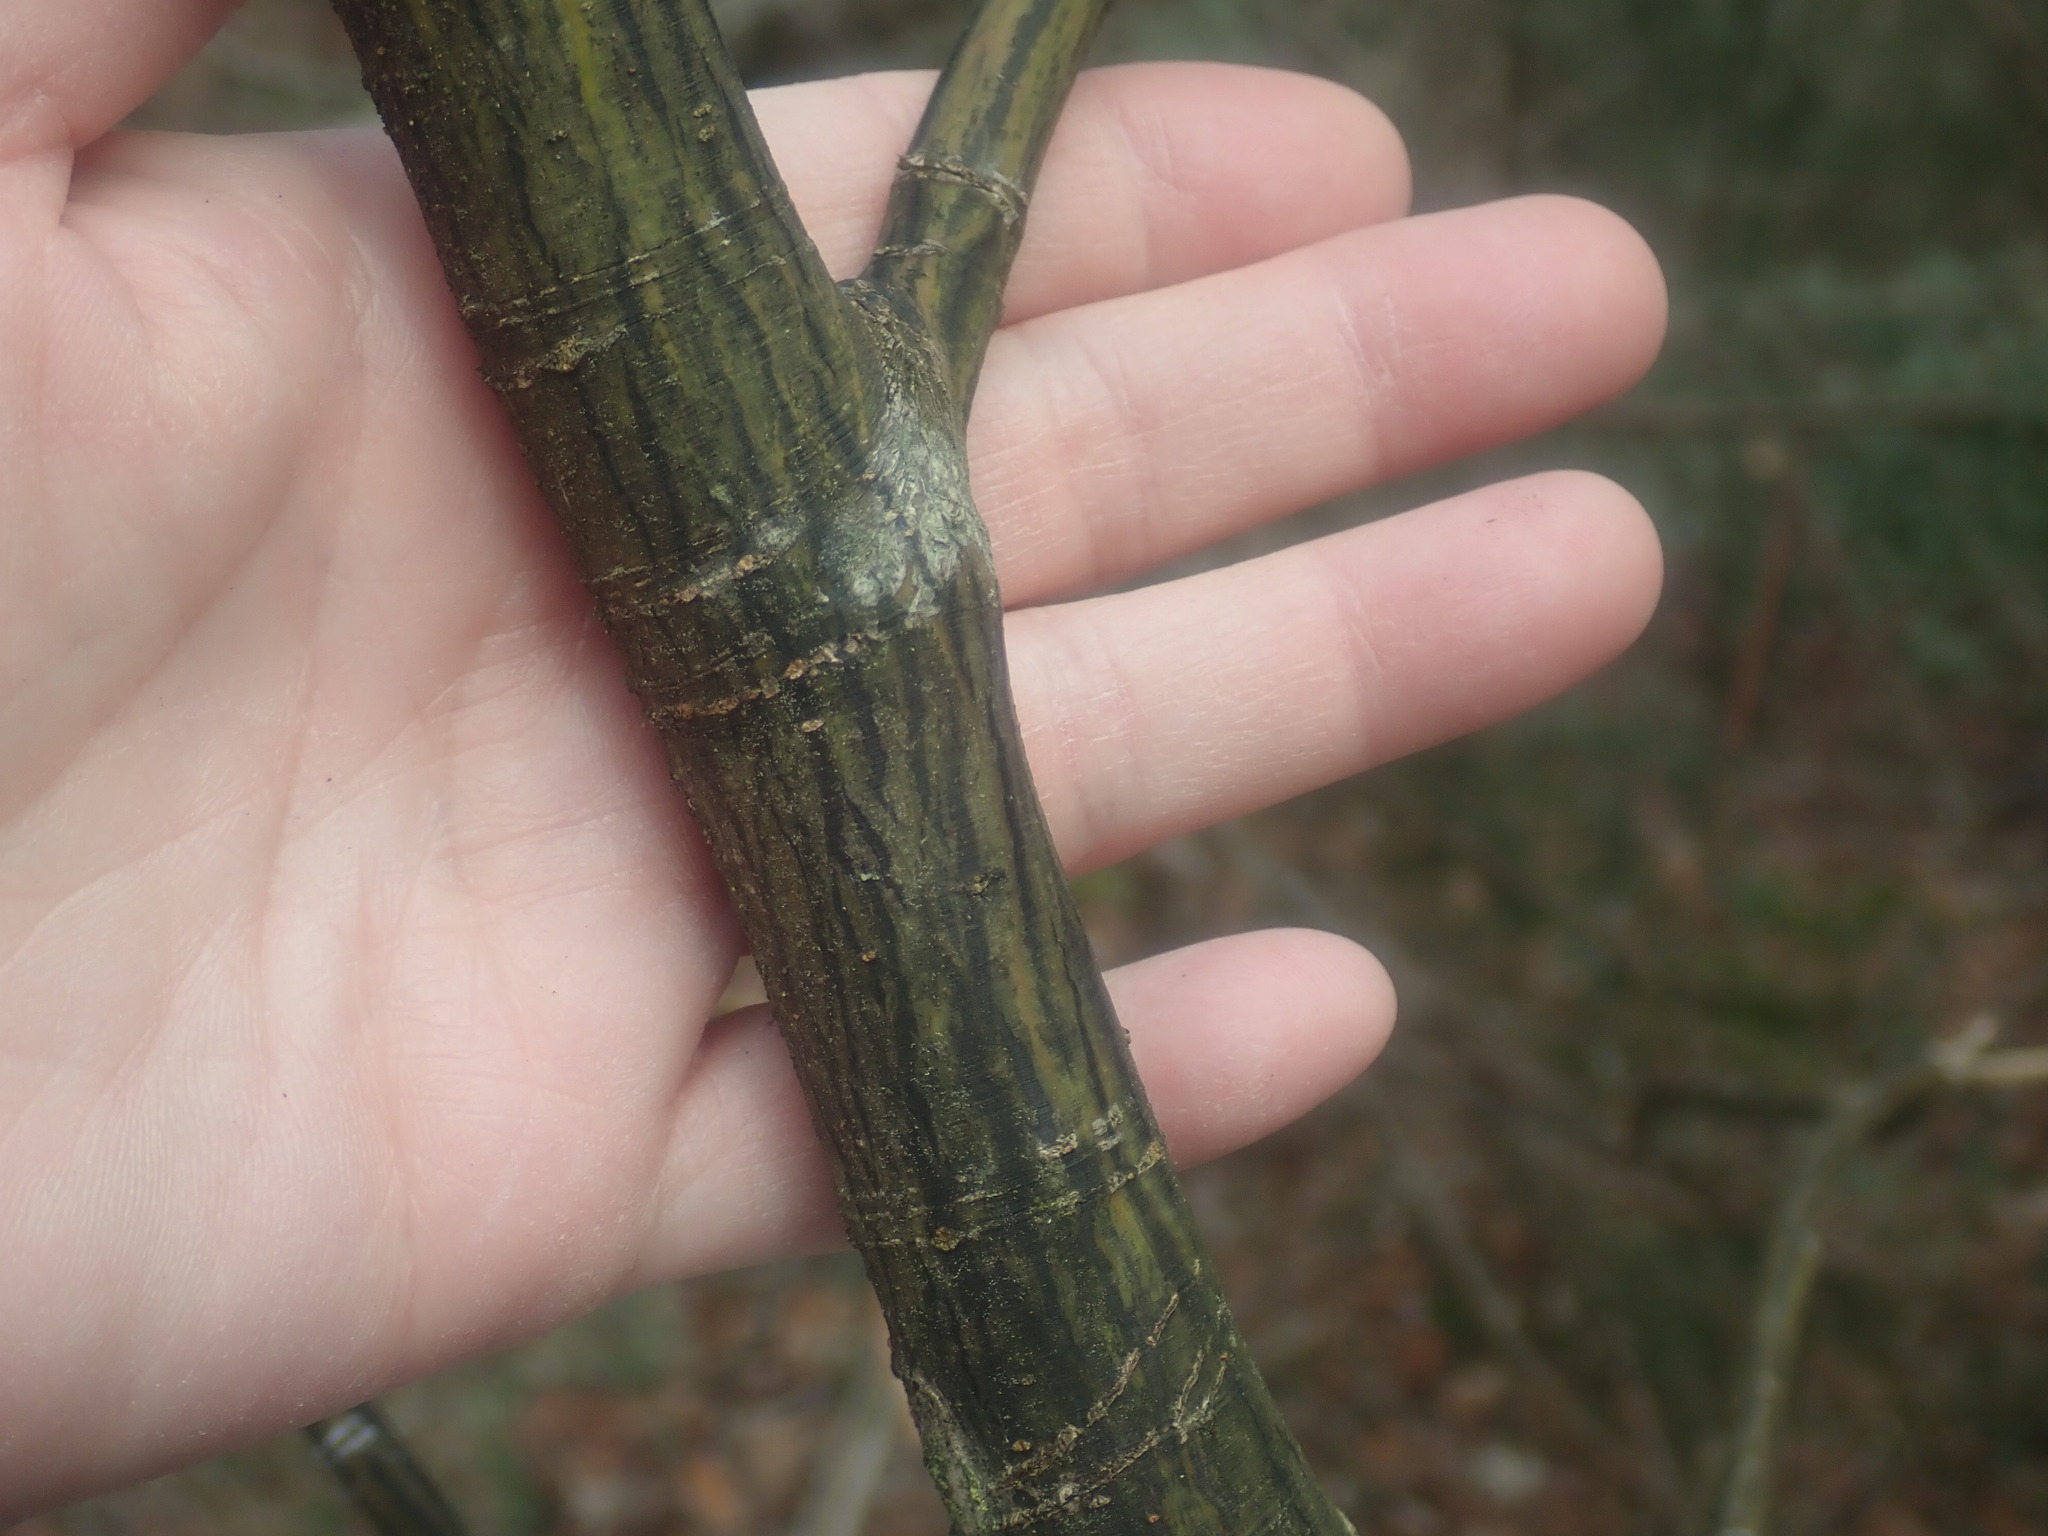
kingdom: Plantae
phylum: Tracheophyta
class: Magnoliopsida
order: Sapindales
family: Sapindaceae
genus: Acer
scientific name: Acer pensylvanicum
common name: Moosewood
